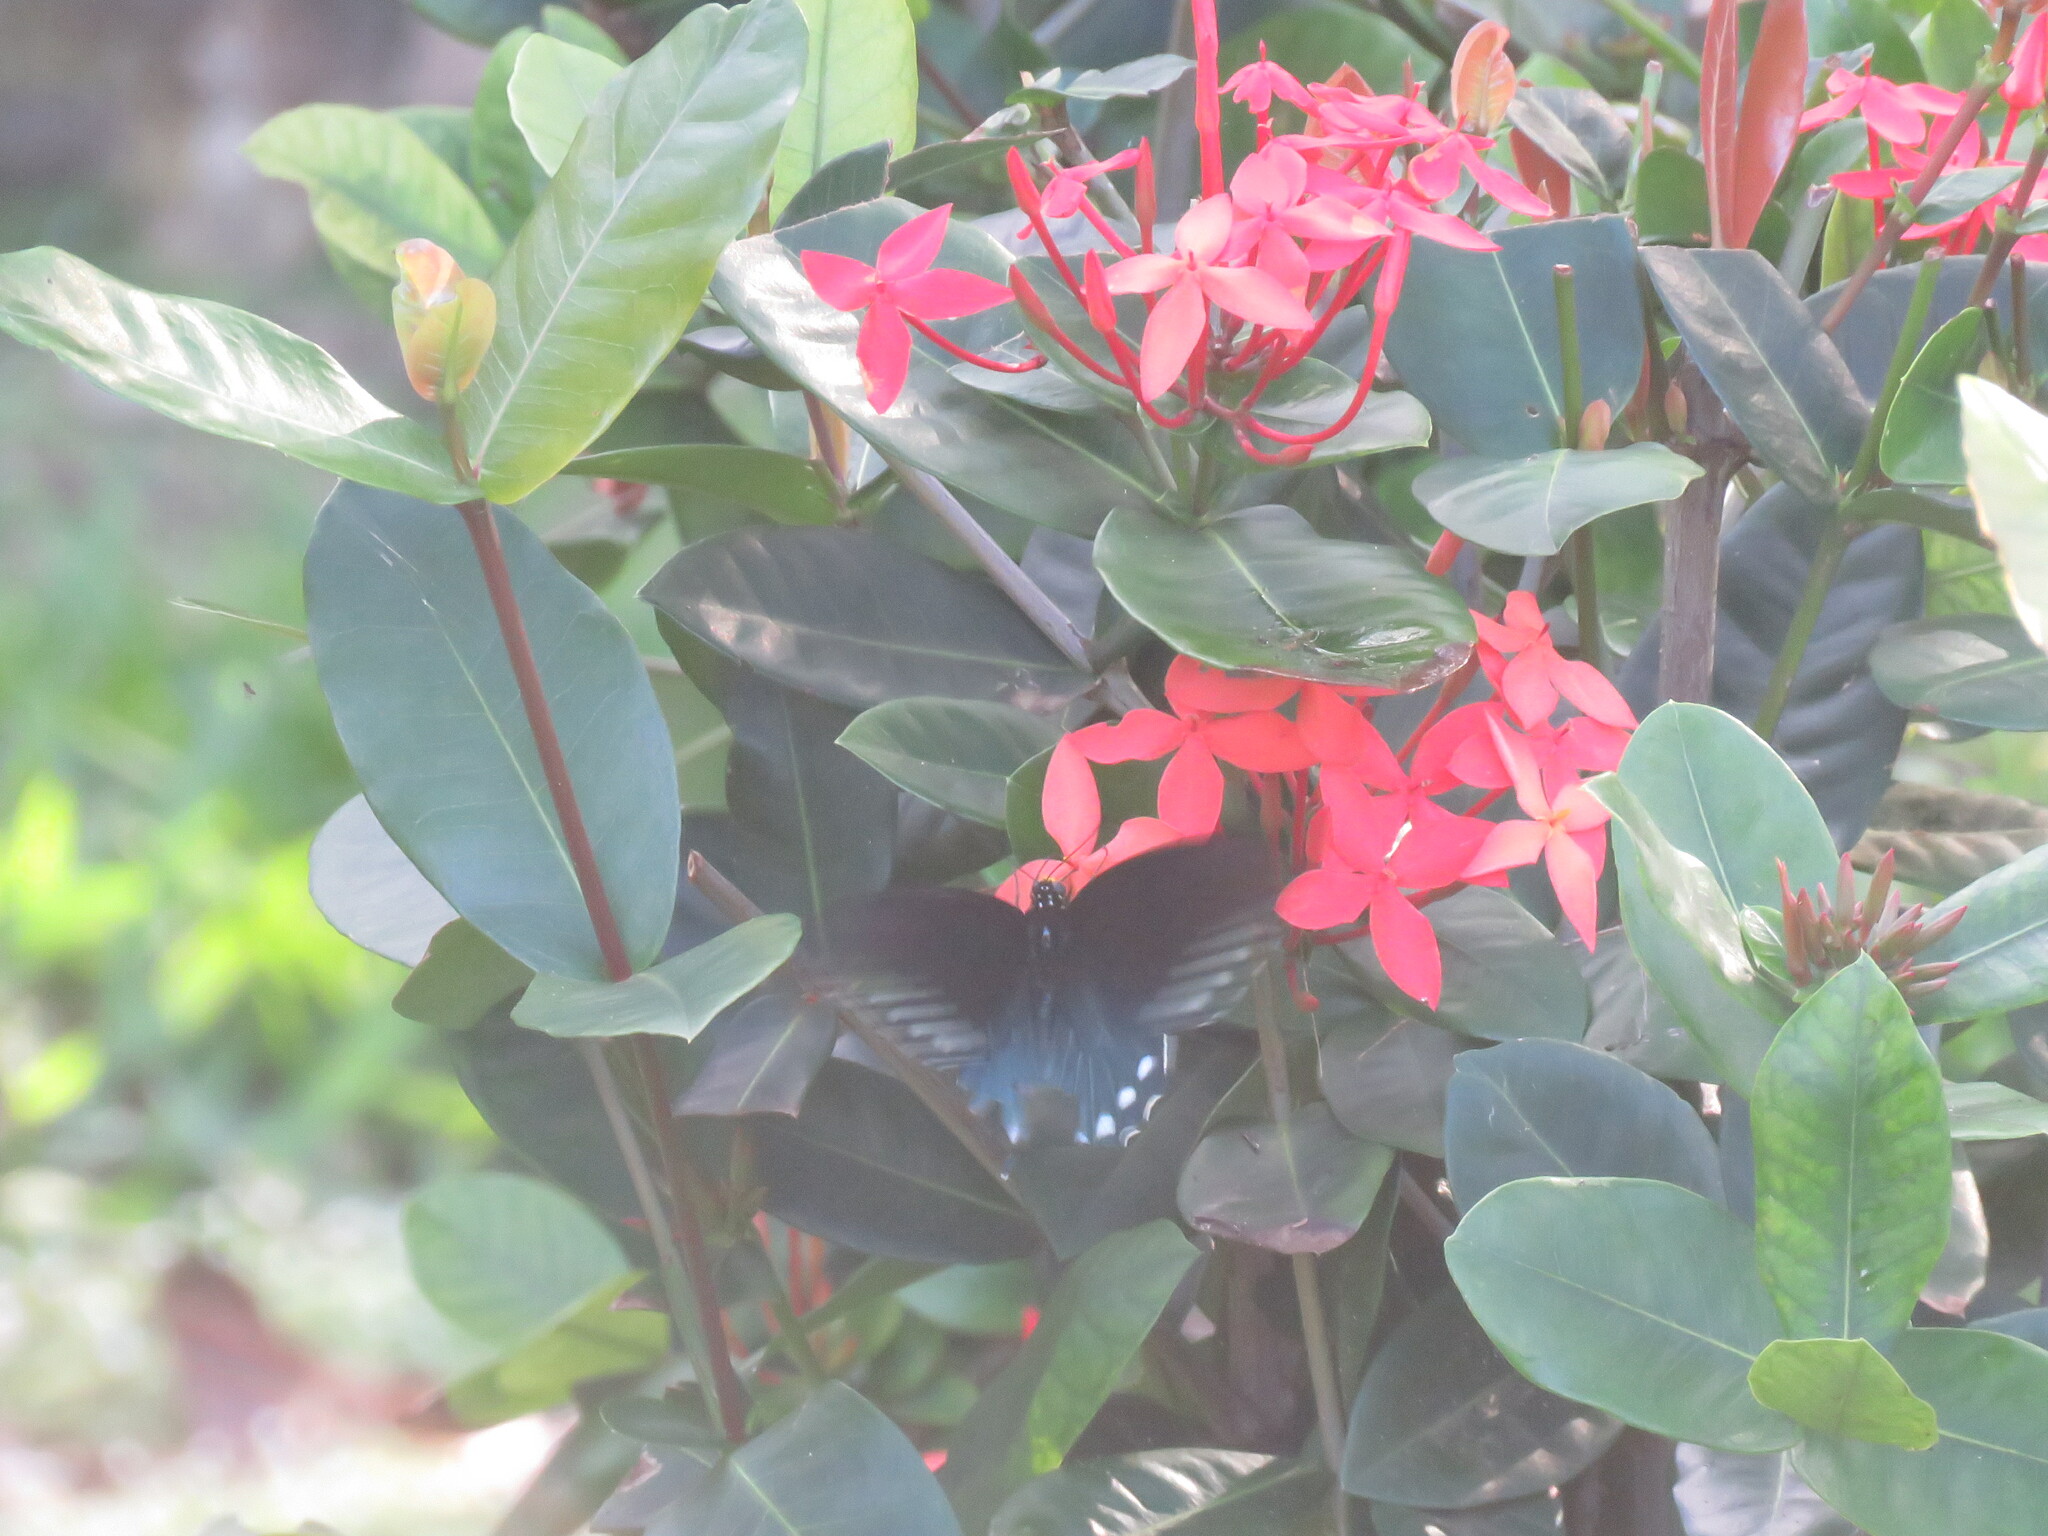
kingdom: Animalia
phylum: Arthropoda
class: Insecta
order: Lepidoptera
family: Papilionidae
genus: Battus
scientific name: Battus philenor
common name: Pipevine swallowtail
